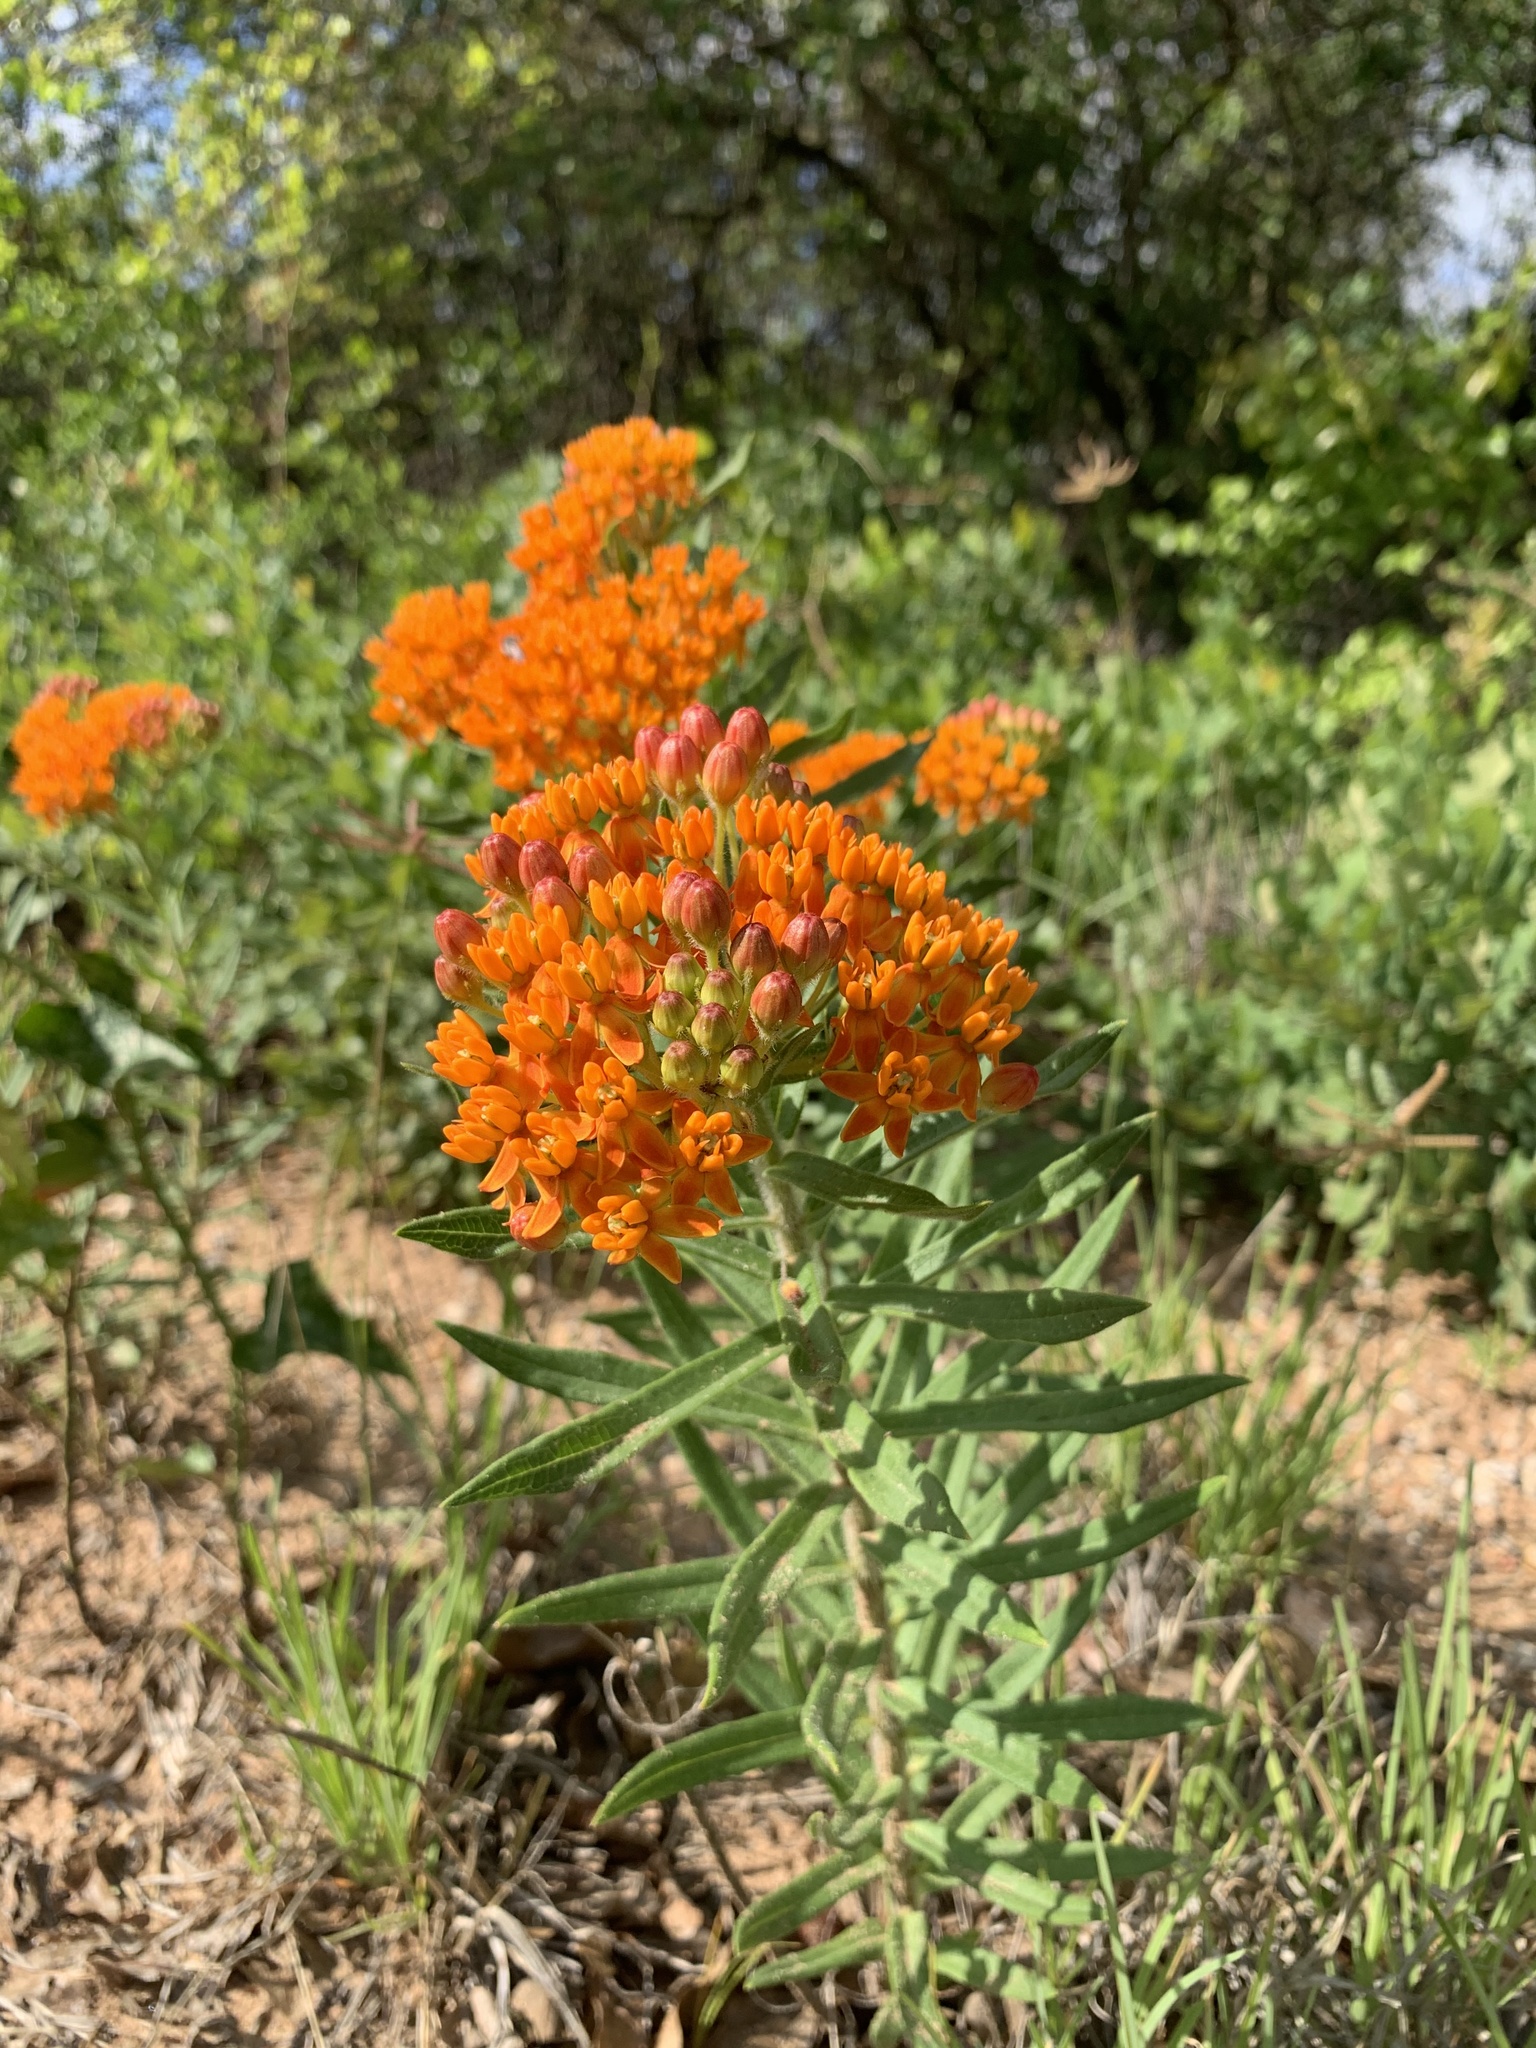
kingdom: Plantae
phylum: Tracheophyta
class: Magnoliopsida
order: Gentianales
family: Apocynaceae
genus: Asclepias
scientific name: Asclepias tuberosa
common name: Butterfly milkweed
